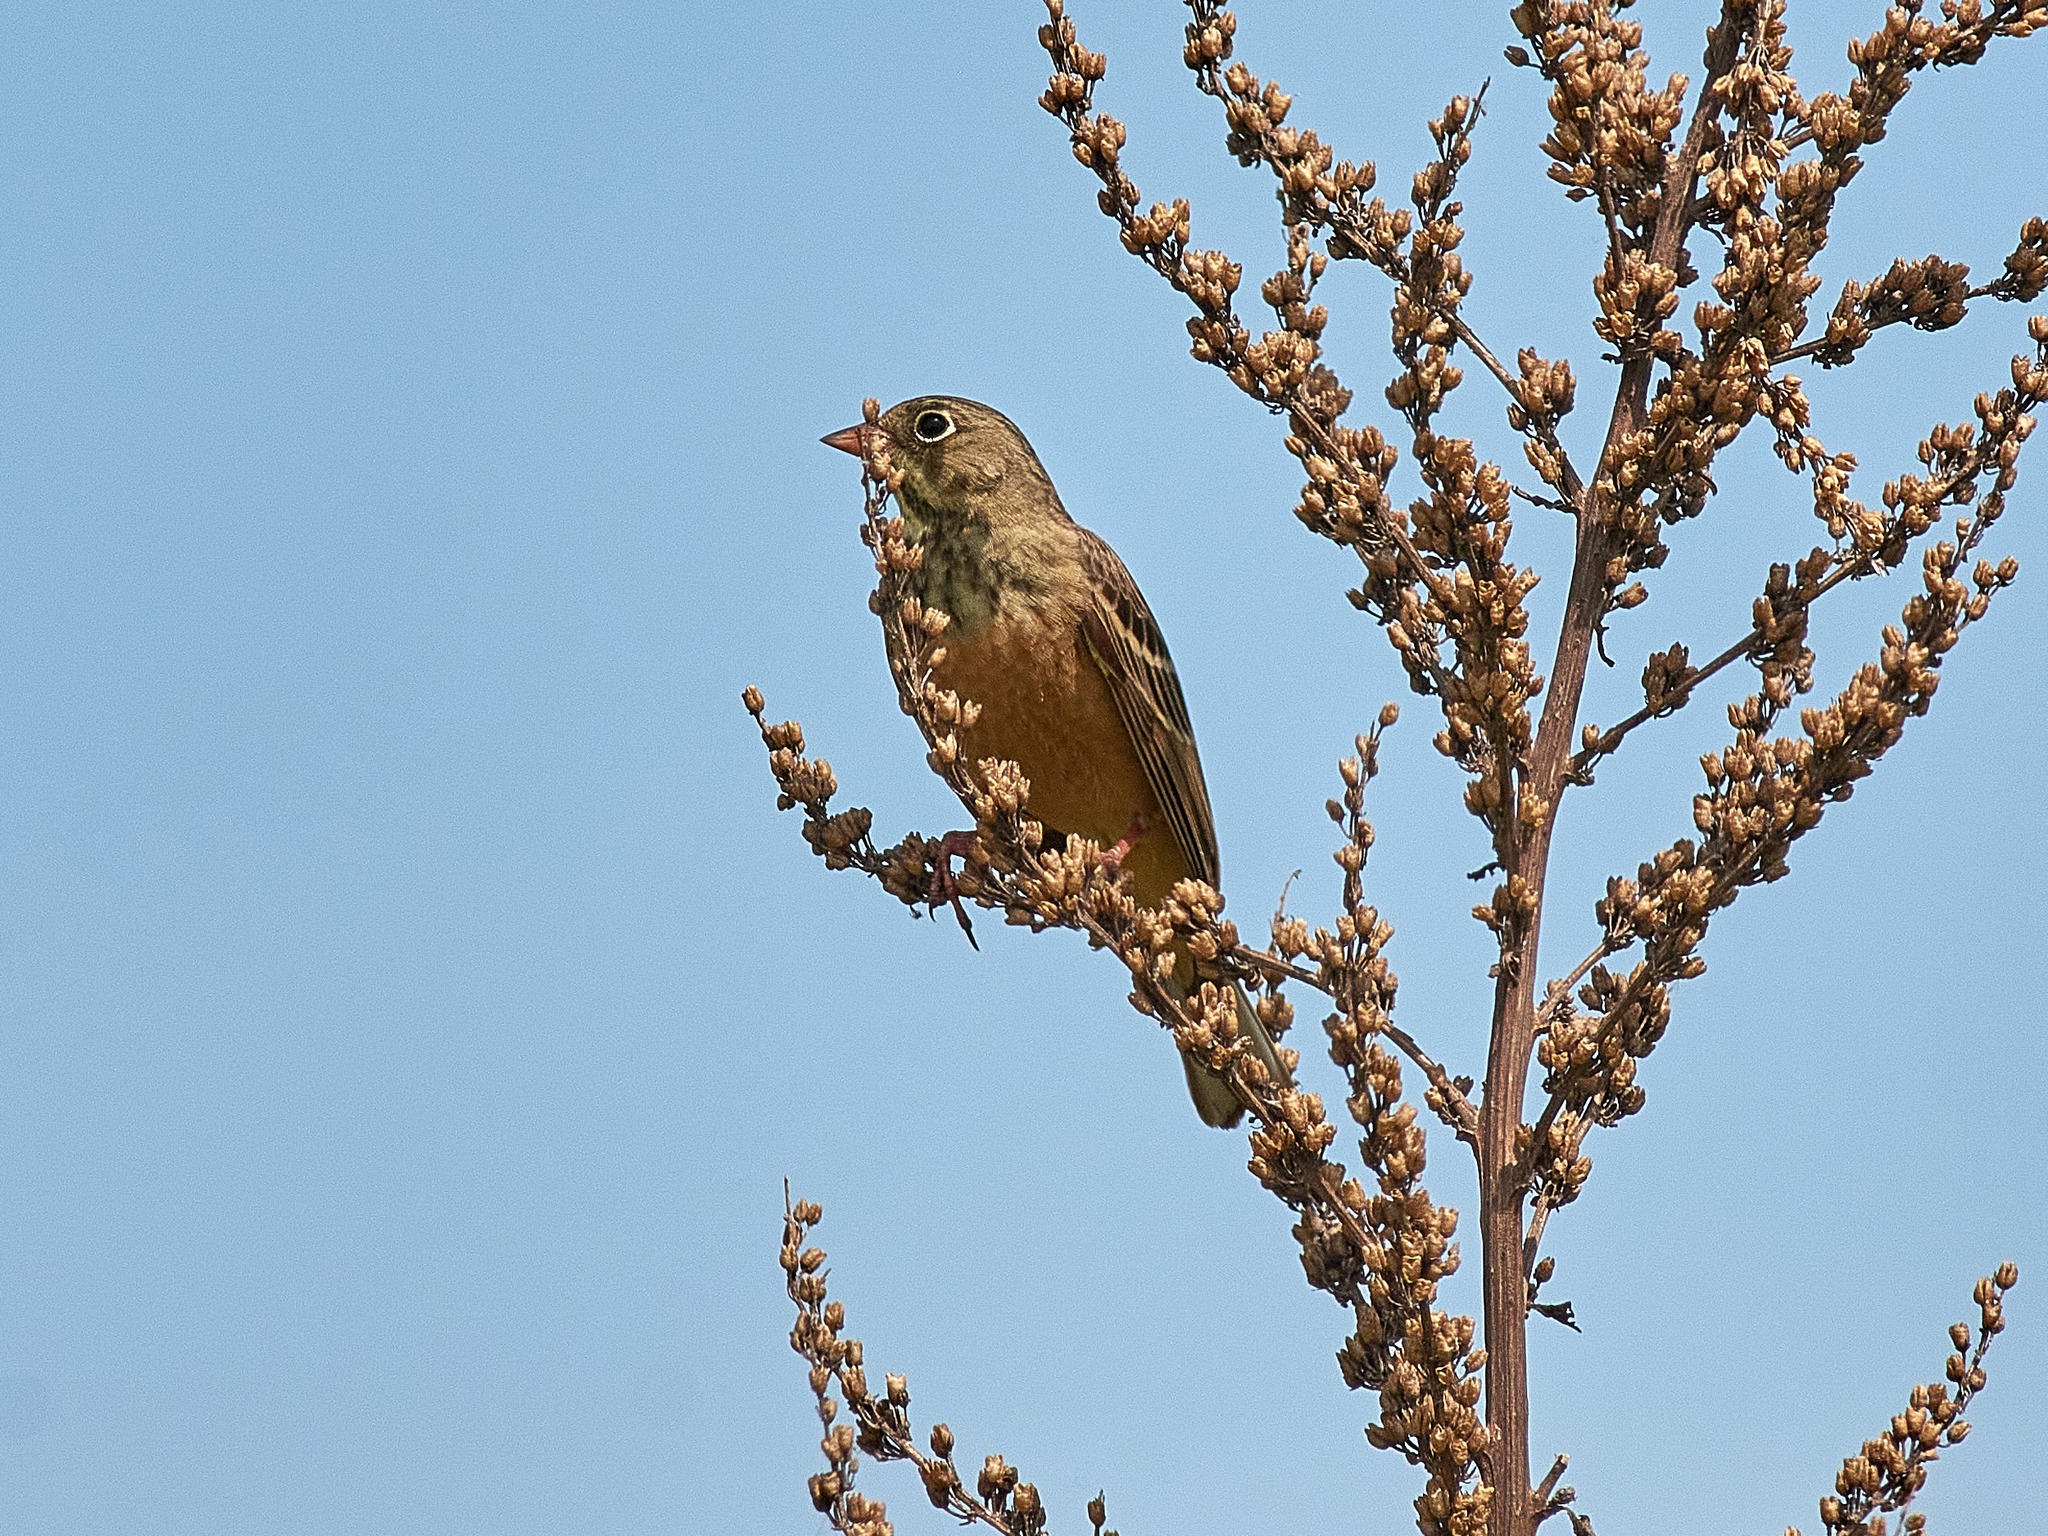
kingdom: Animalia
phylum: Chordata
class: Aves
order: Passeriformes
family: Emberizidae
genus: Emberiza
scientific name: Emberiza hortulana
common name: Ortolan bunting
